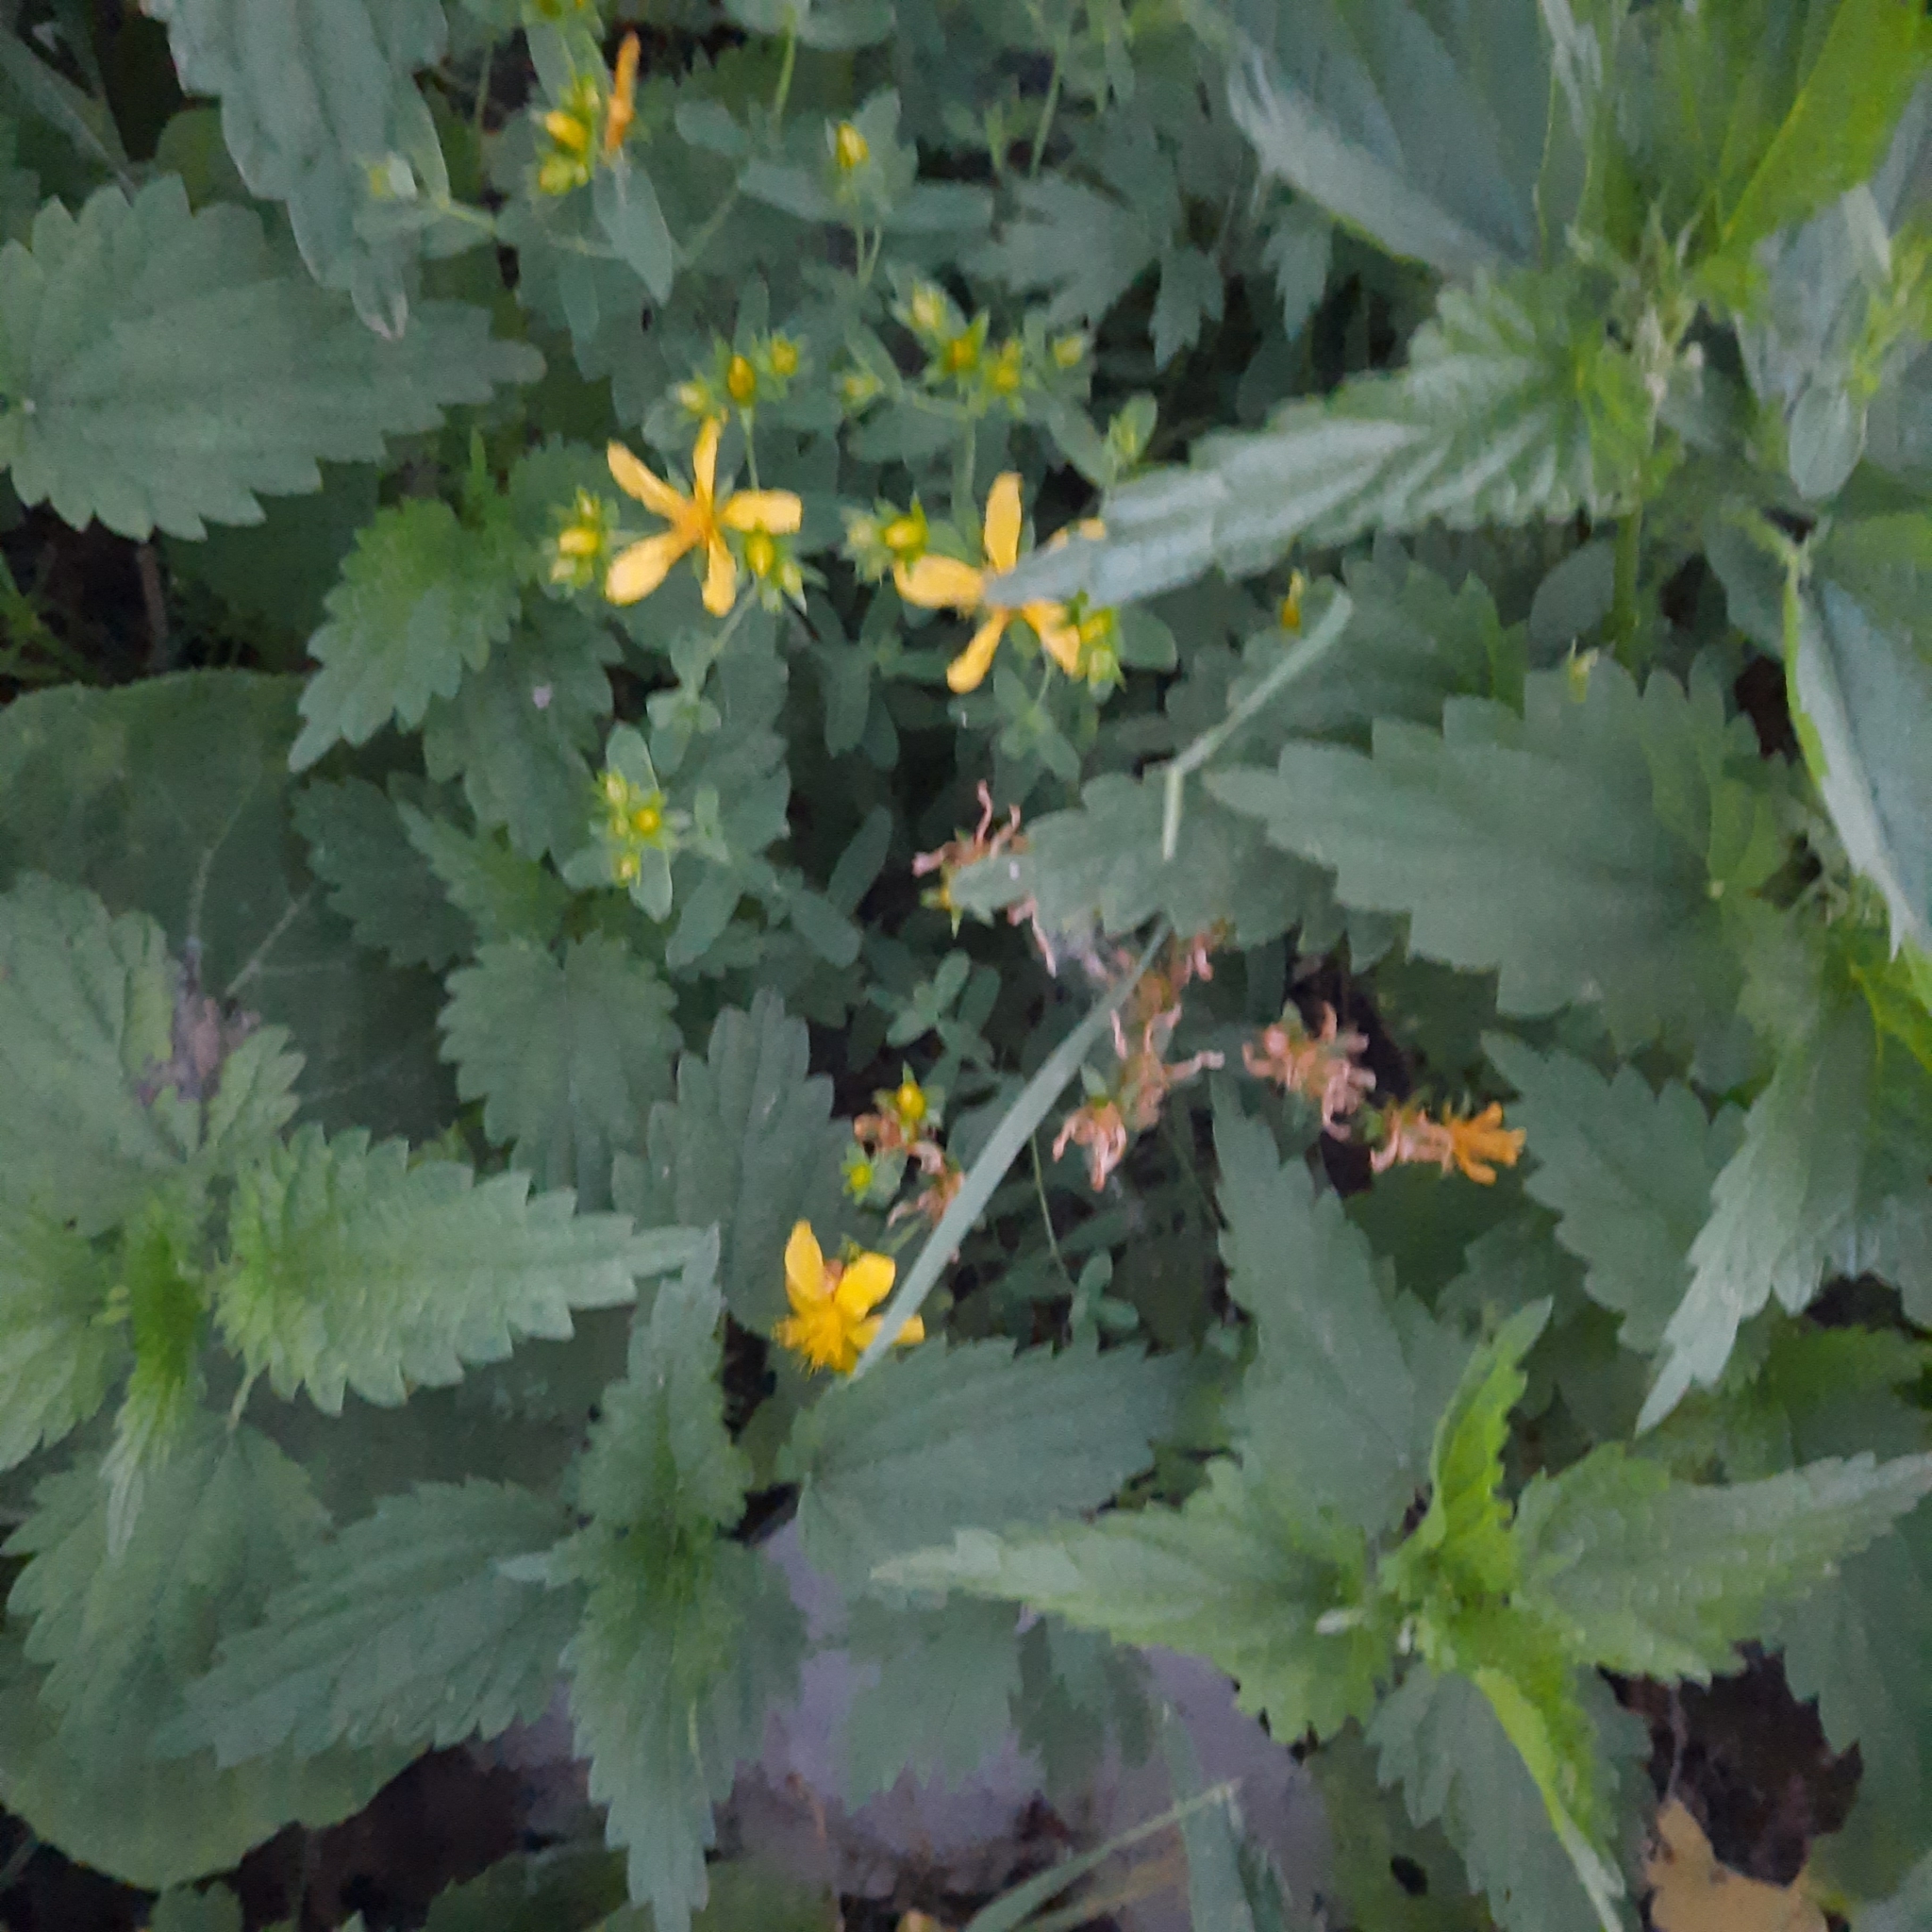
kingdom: Plantae
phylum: Tracheophyta
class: Magnoliopsida
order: Malpighiales
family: Hypericaceae
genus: Hypericum
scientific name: Hypericum perforatum
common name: Common st. johnswort
